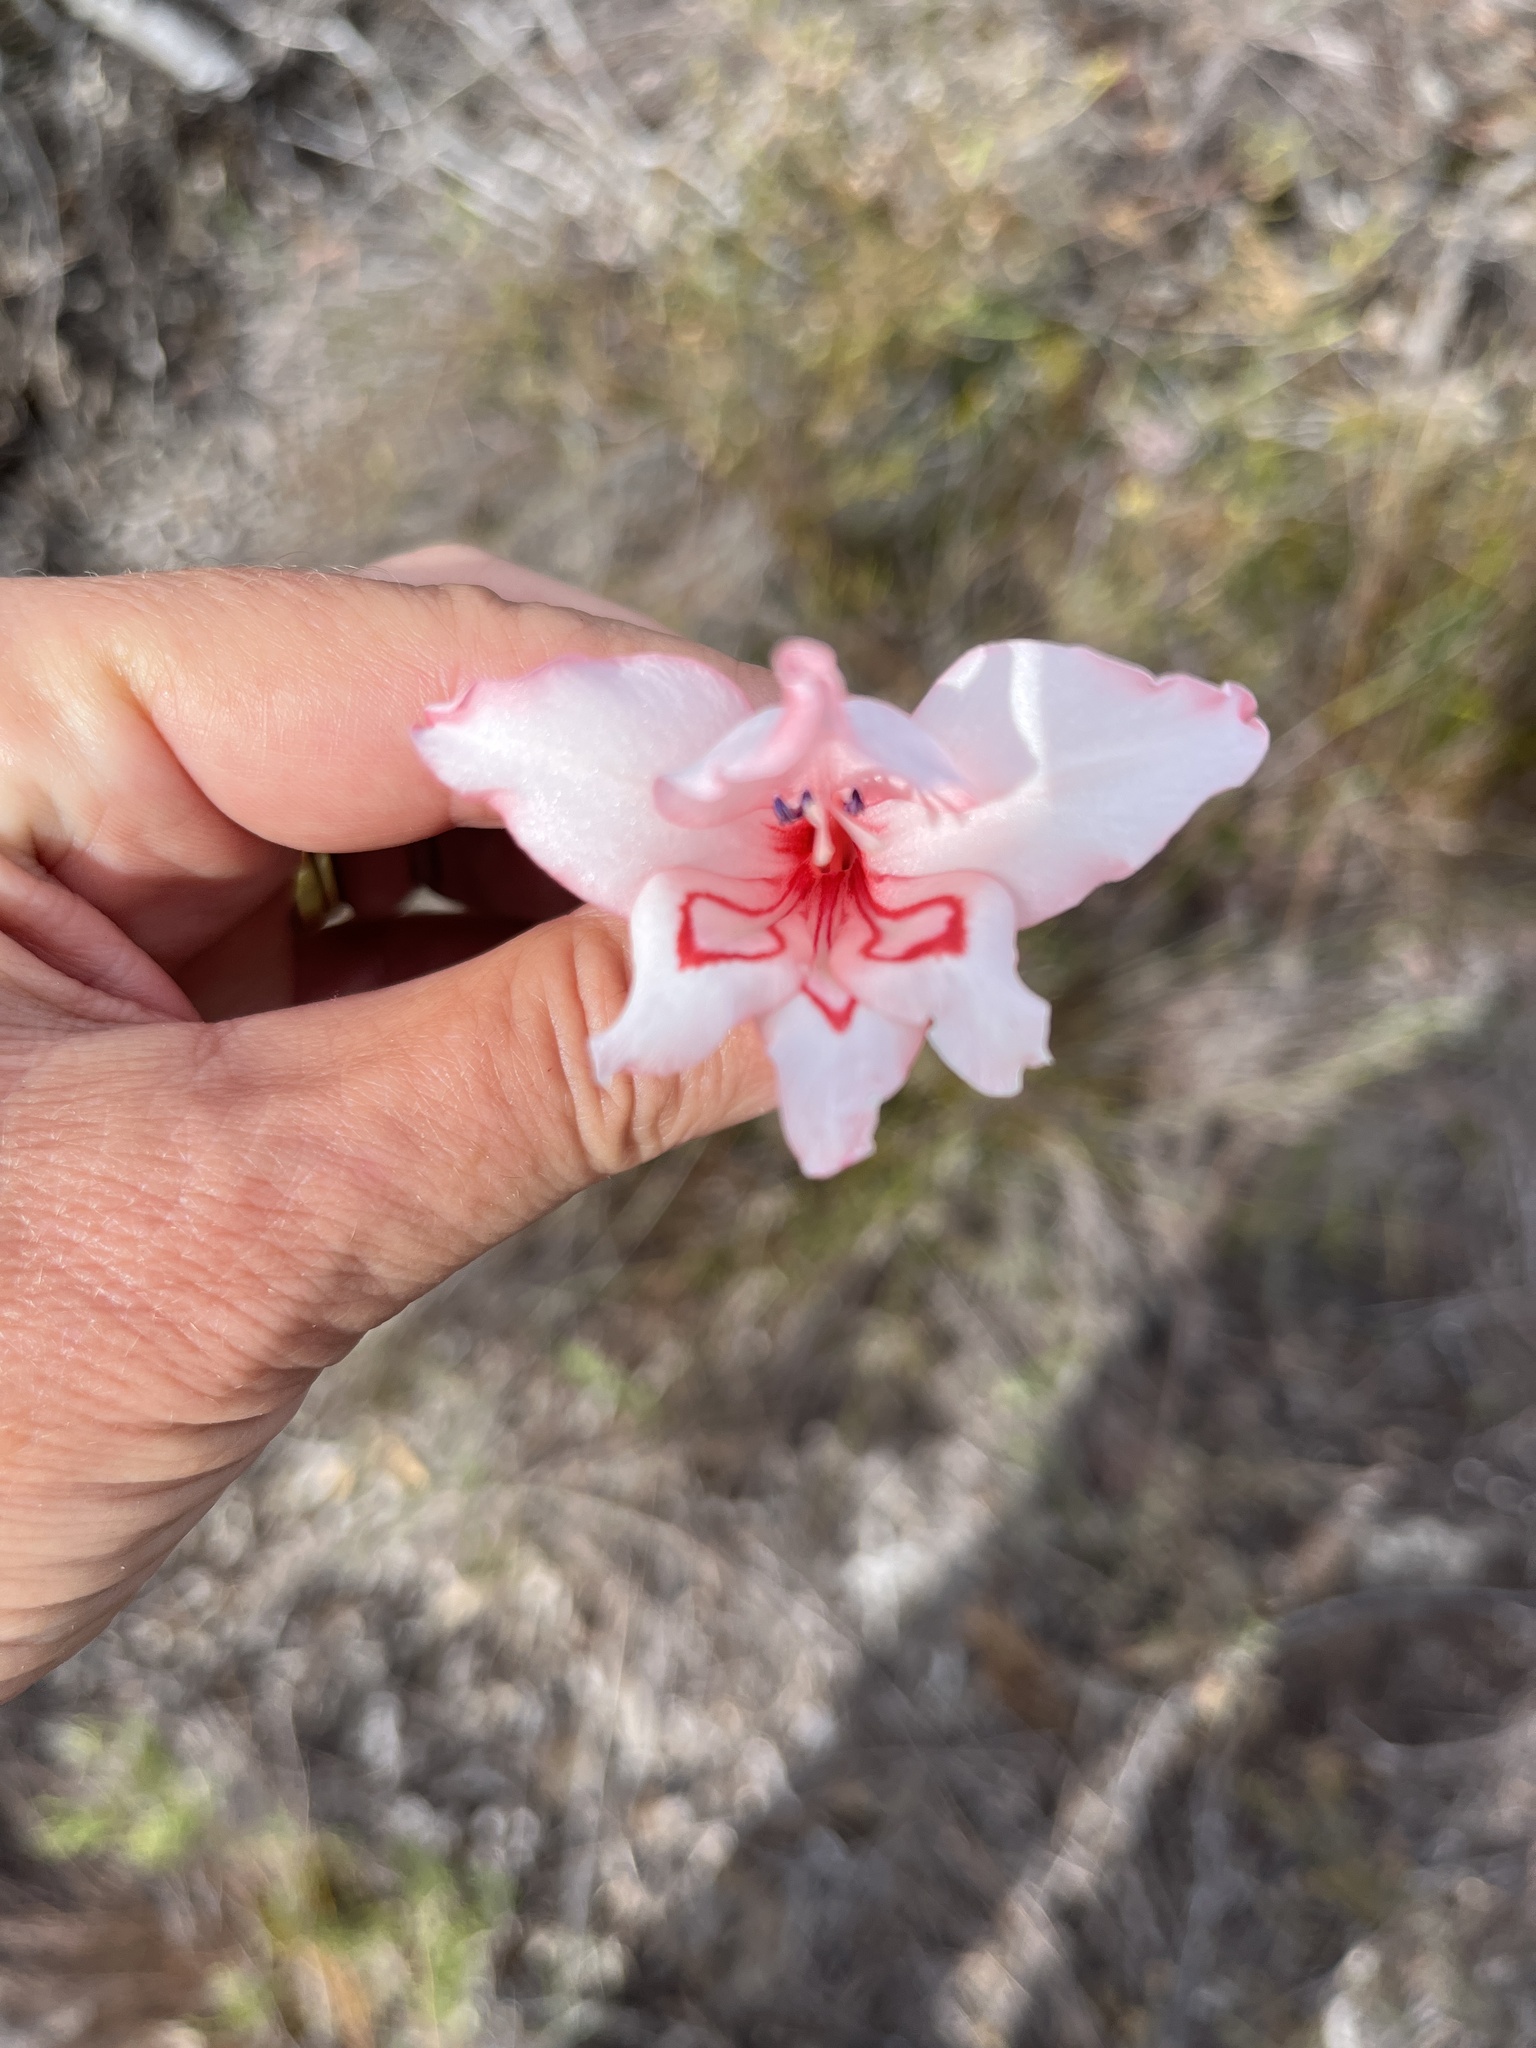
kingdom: Plantae
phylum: Tracheophyta
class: Liliopsida
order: Asparagales
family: Iridaceae
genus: Gladiolus
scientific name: Gladiolus carneus
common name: Painted-lady
